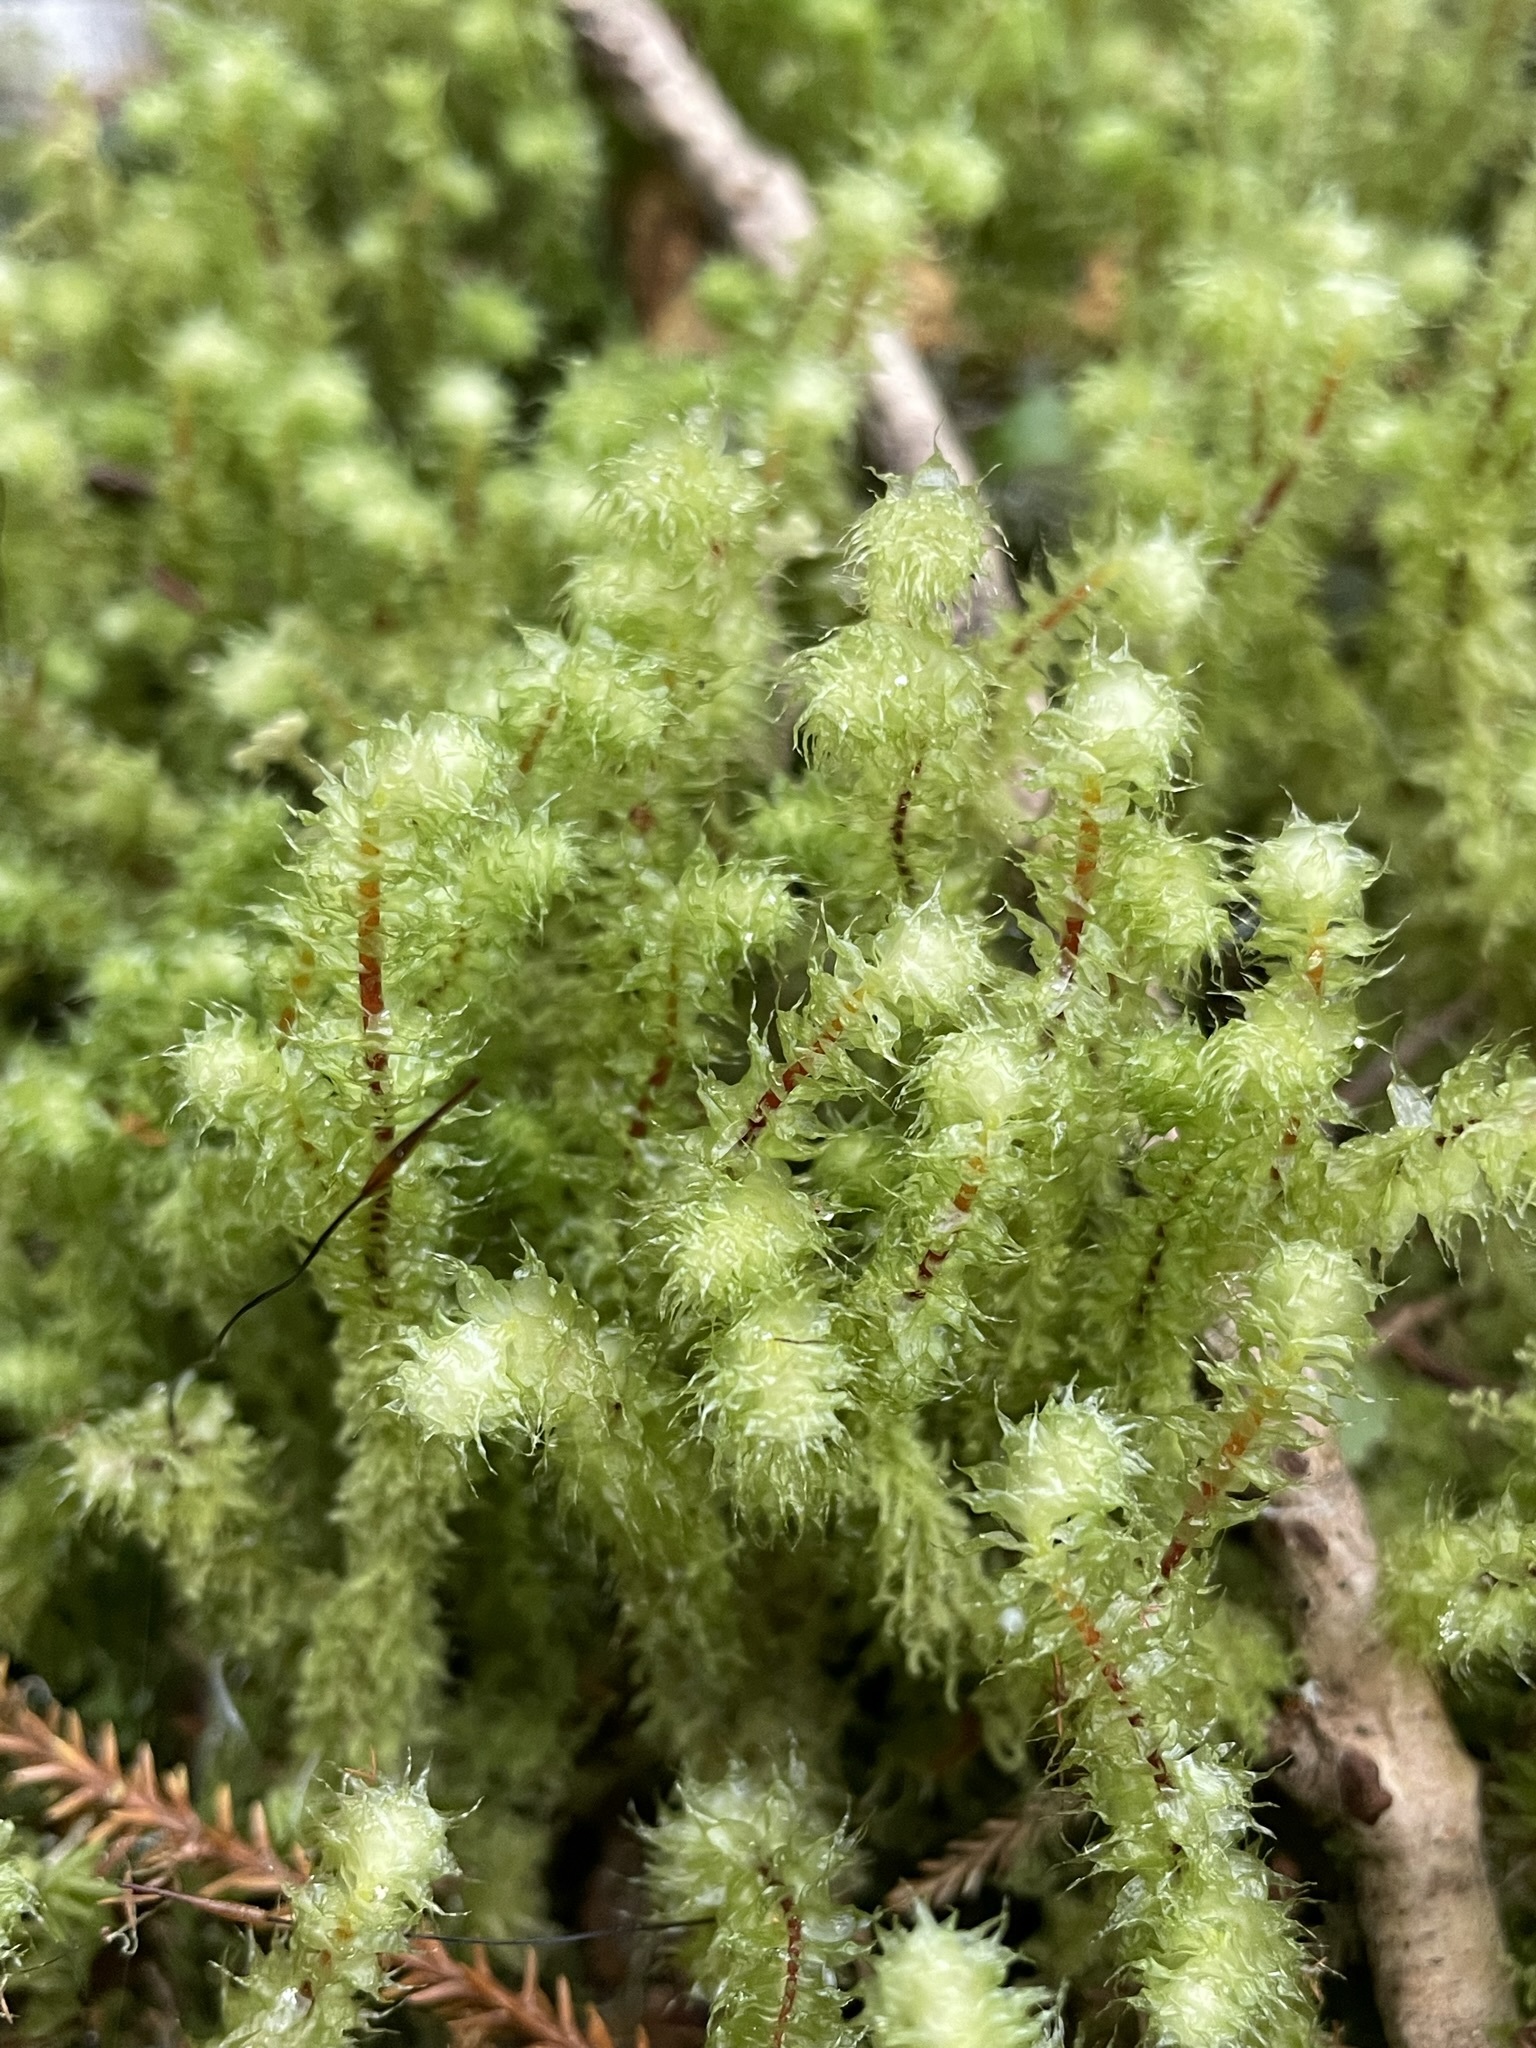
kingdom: Plantae
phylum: Bryophyta
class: Bryopsida
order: Ptychomniales
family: Ptychomniaceae
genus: Ptychomnion
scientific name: Ptychomnion aciculare
